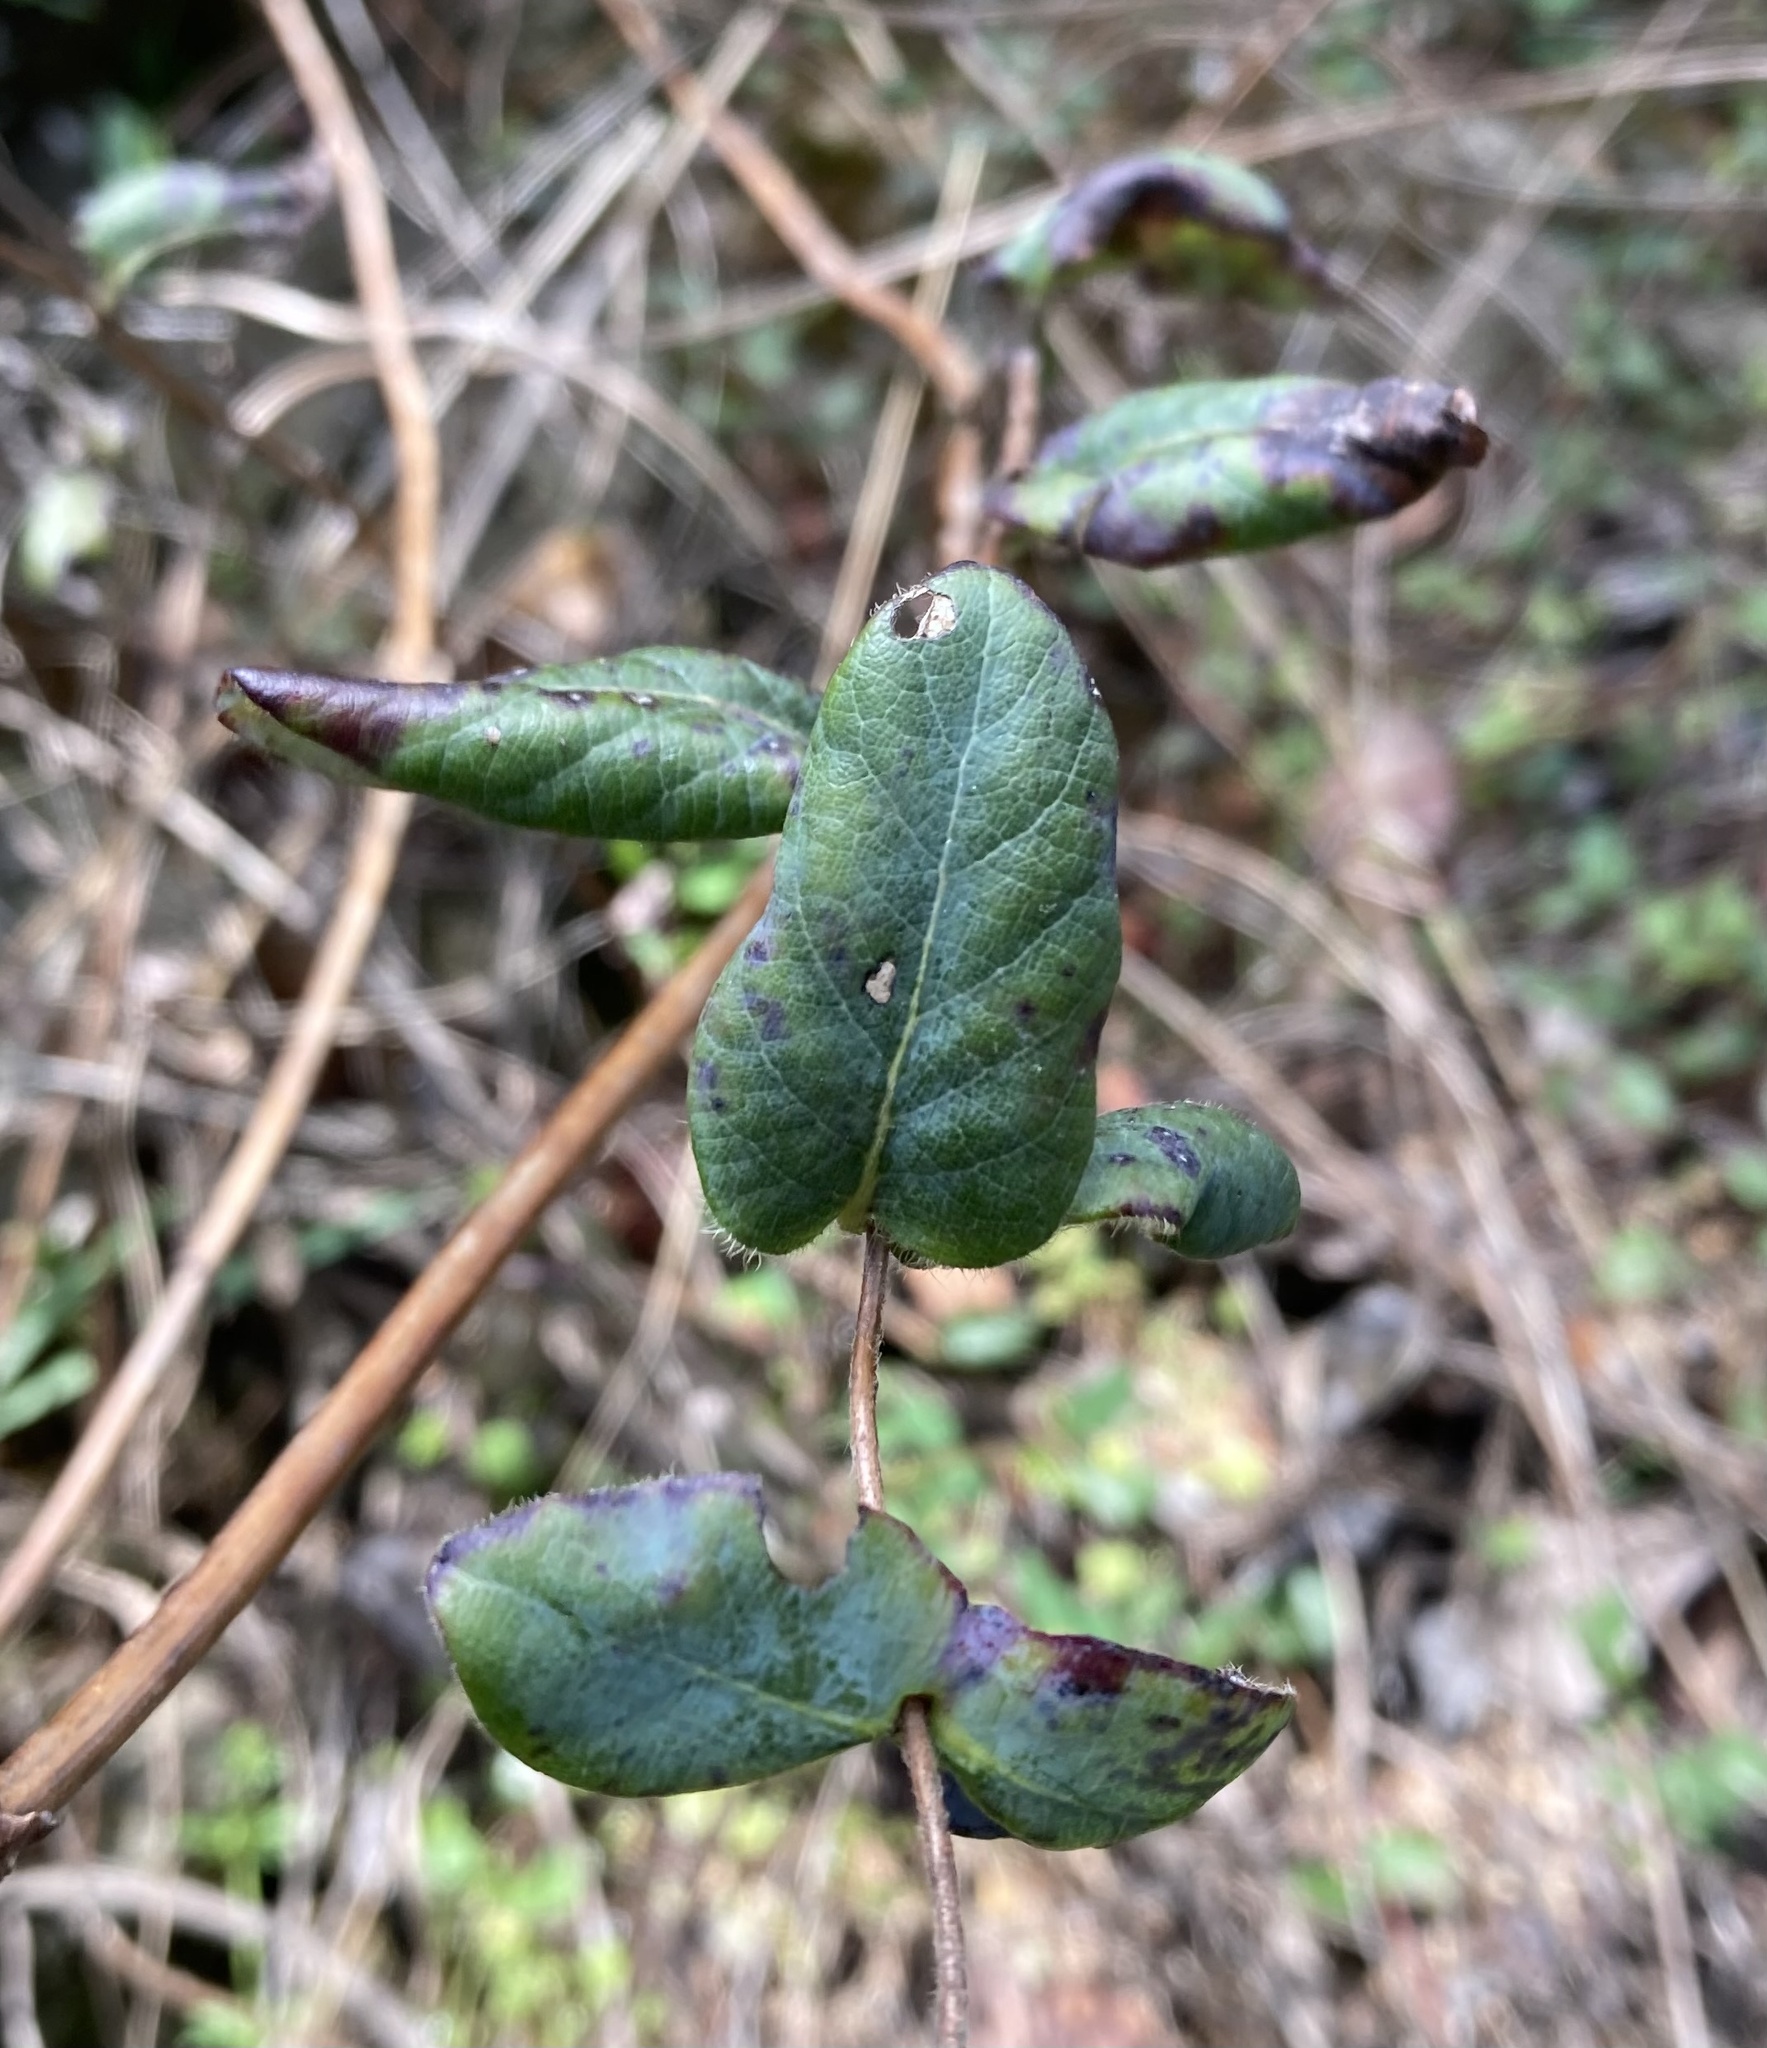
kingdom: Plantae
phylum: Tracheophyta
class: Magnoliopsida
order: Dipsacales
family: Caprifoliaceae
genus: Lonicera
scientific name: Lonicera hispidula
